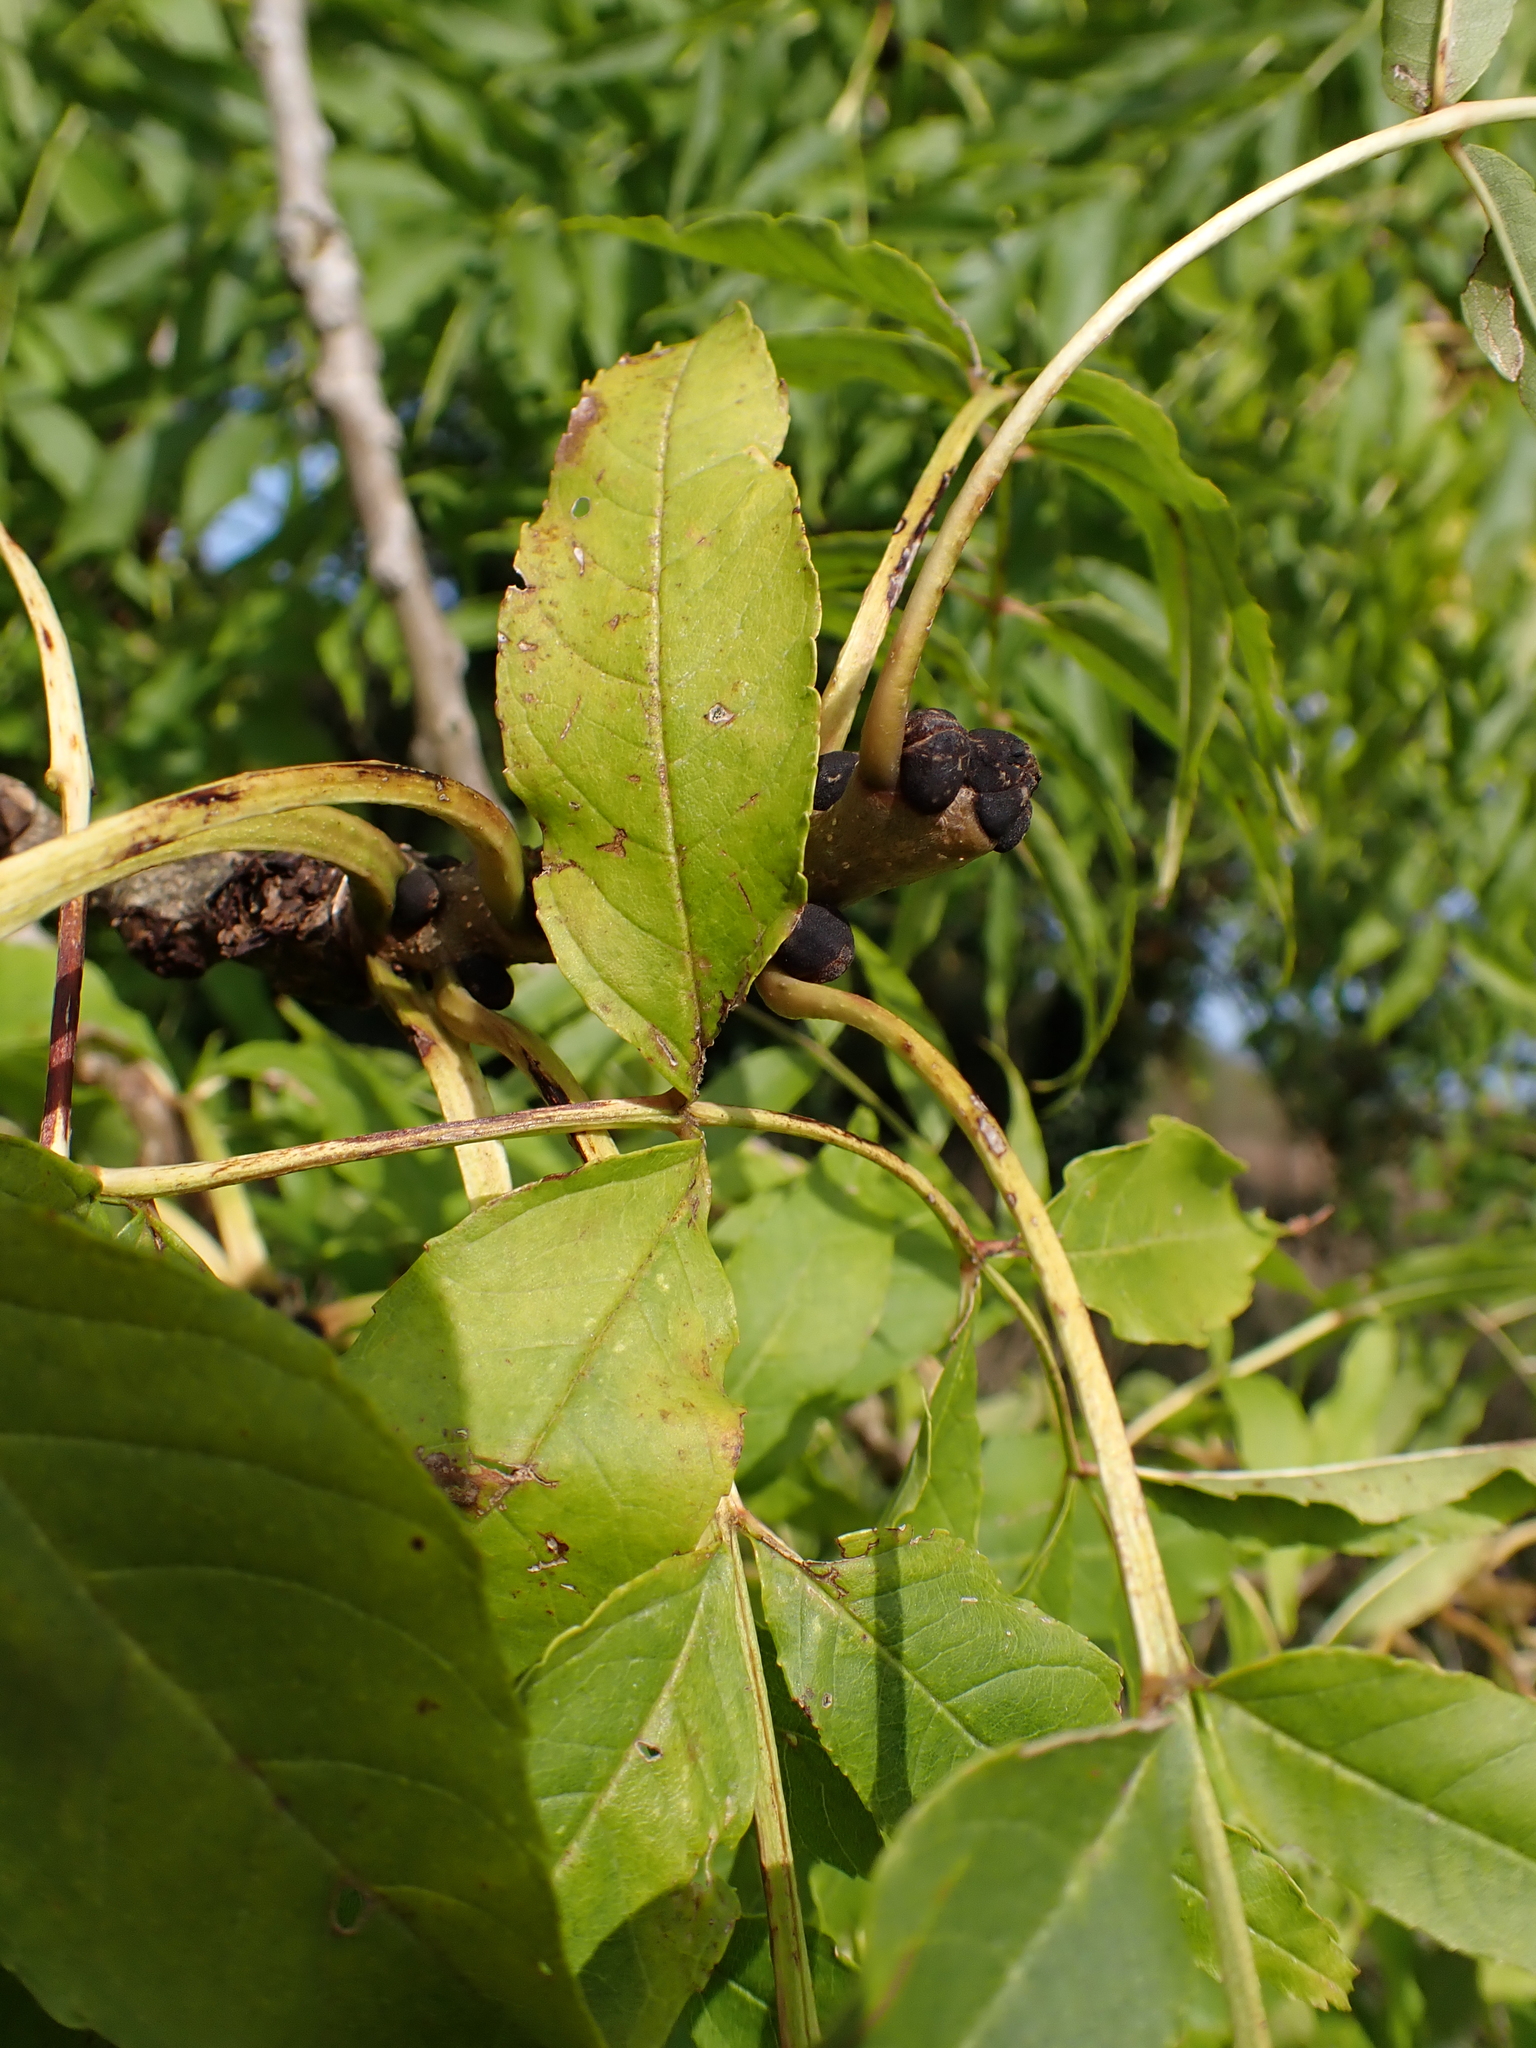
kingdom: Plantae
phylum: Tracheophyta
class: Magnoliopsida
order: Lamiales
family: Oleaceae
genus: Fraxinus
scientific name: Fraxinus excelsior
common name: European ash
